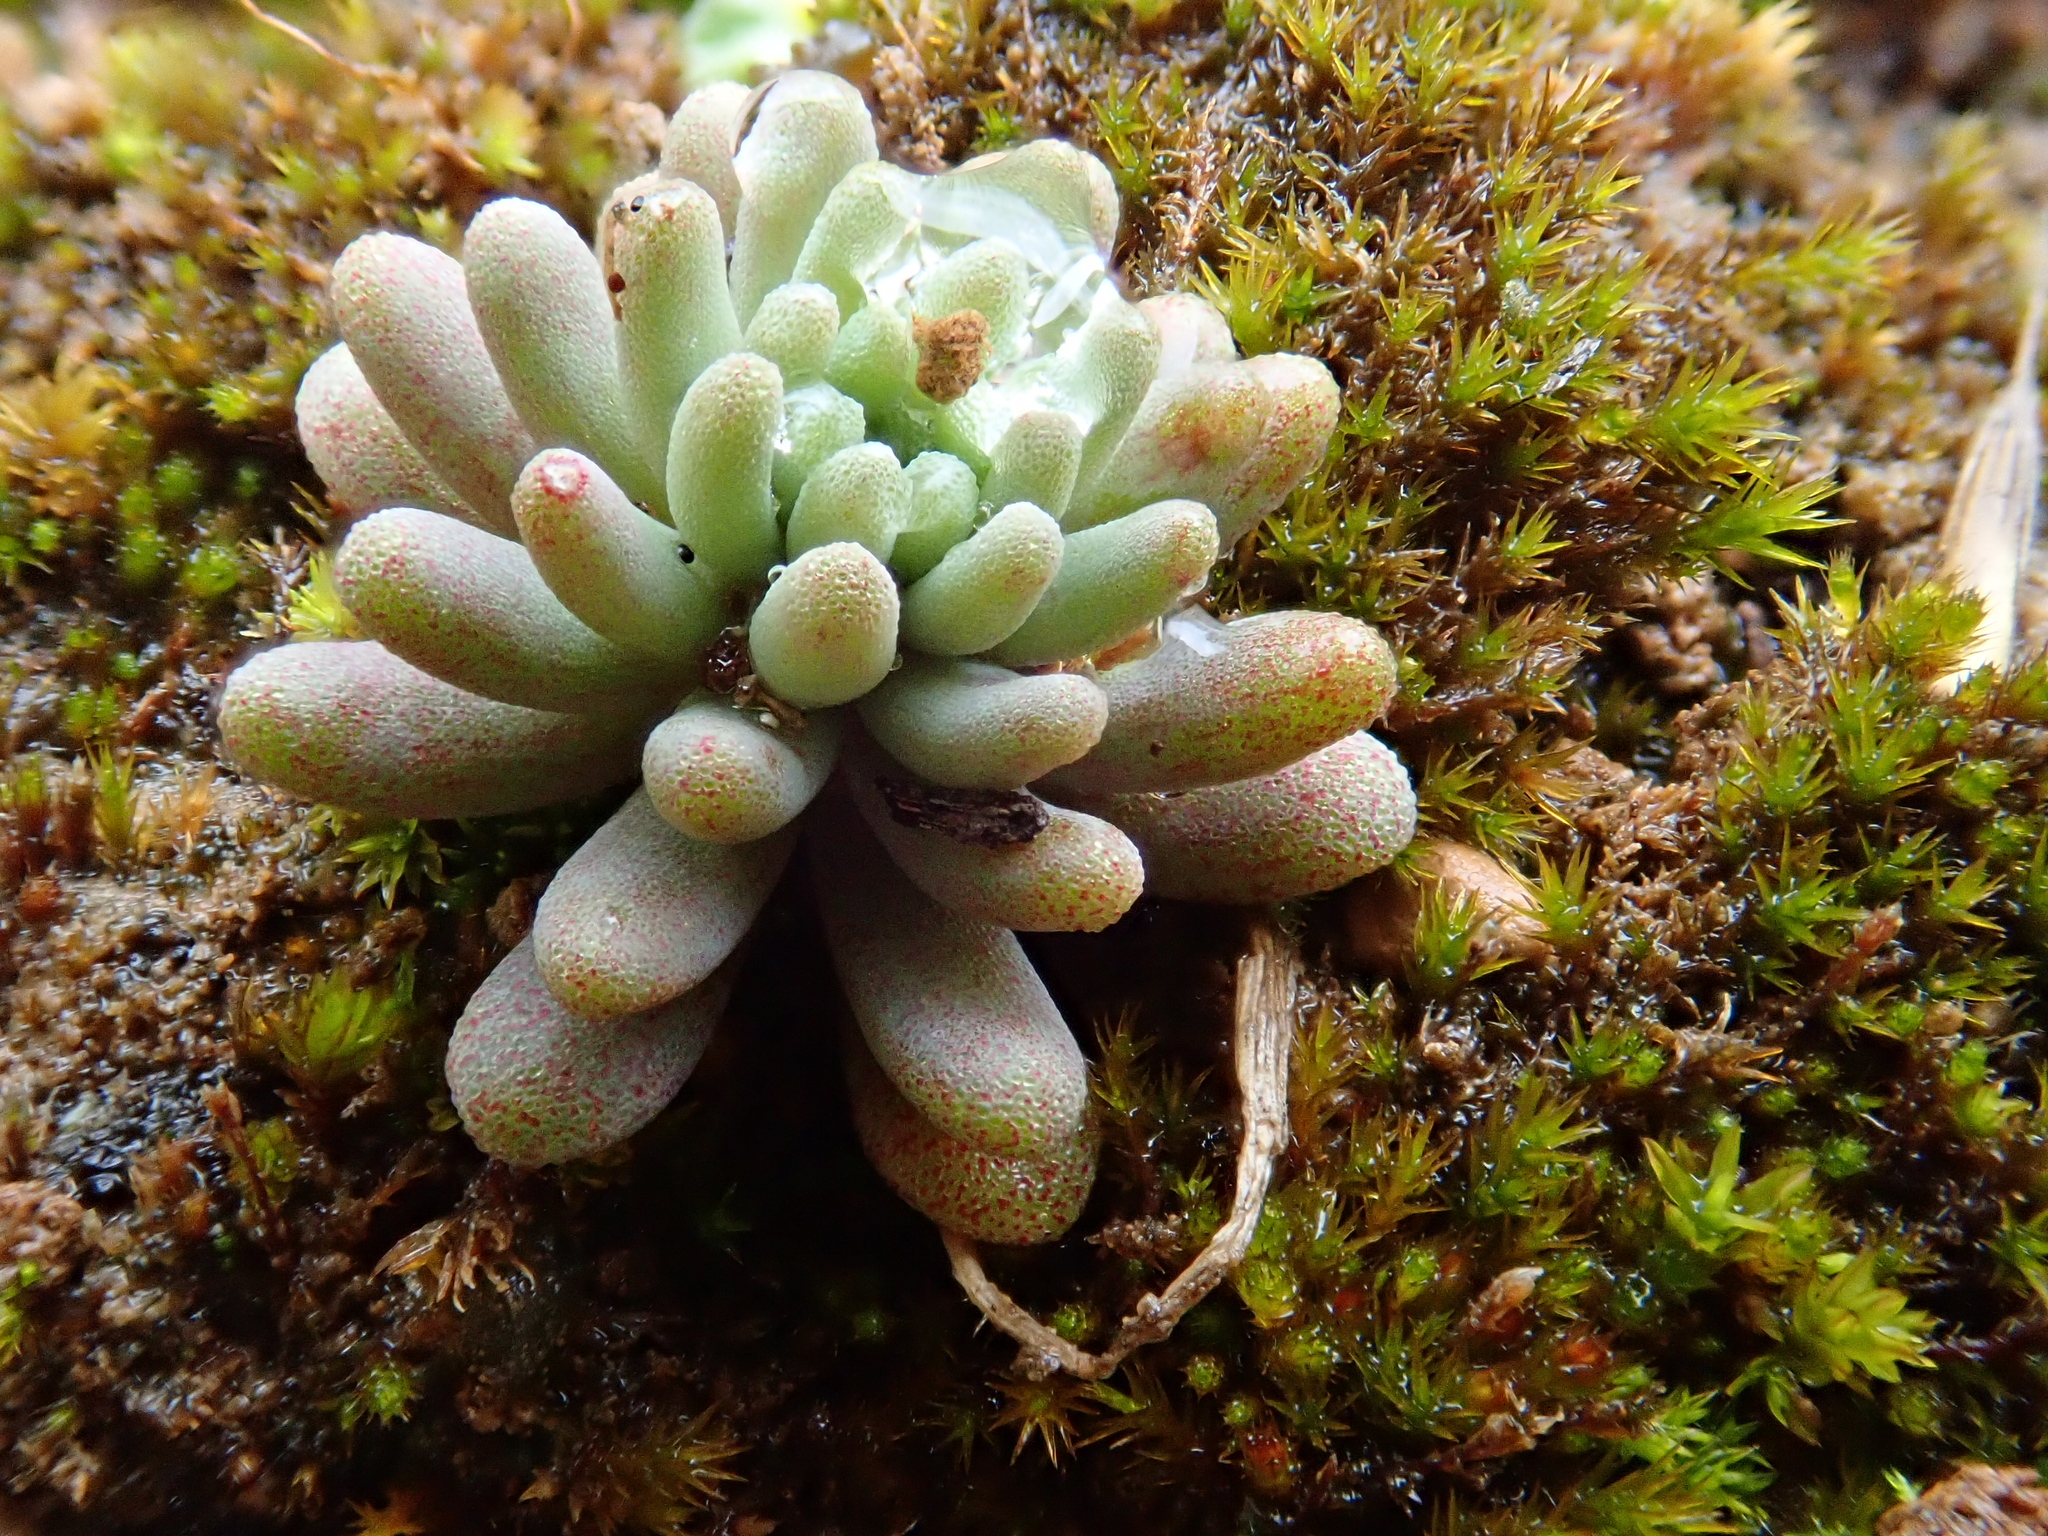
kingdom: Plantae
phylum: Tracheophyta
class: Magnoliopsida
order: Saxifragales
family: Crassulaceae
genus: Sedum
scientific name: Sedum rubens
